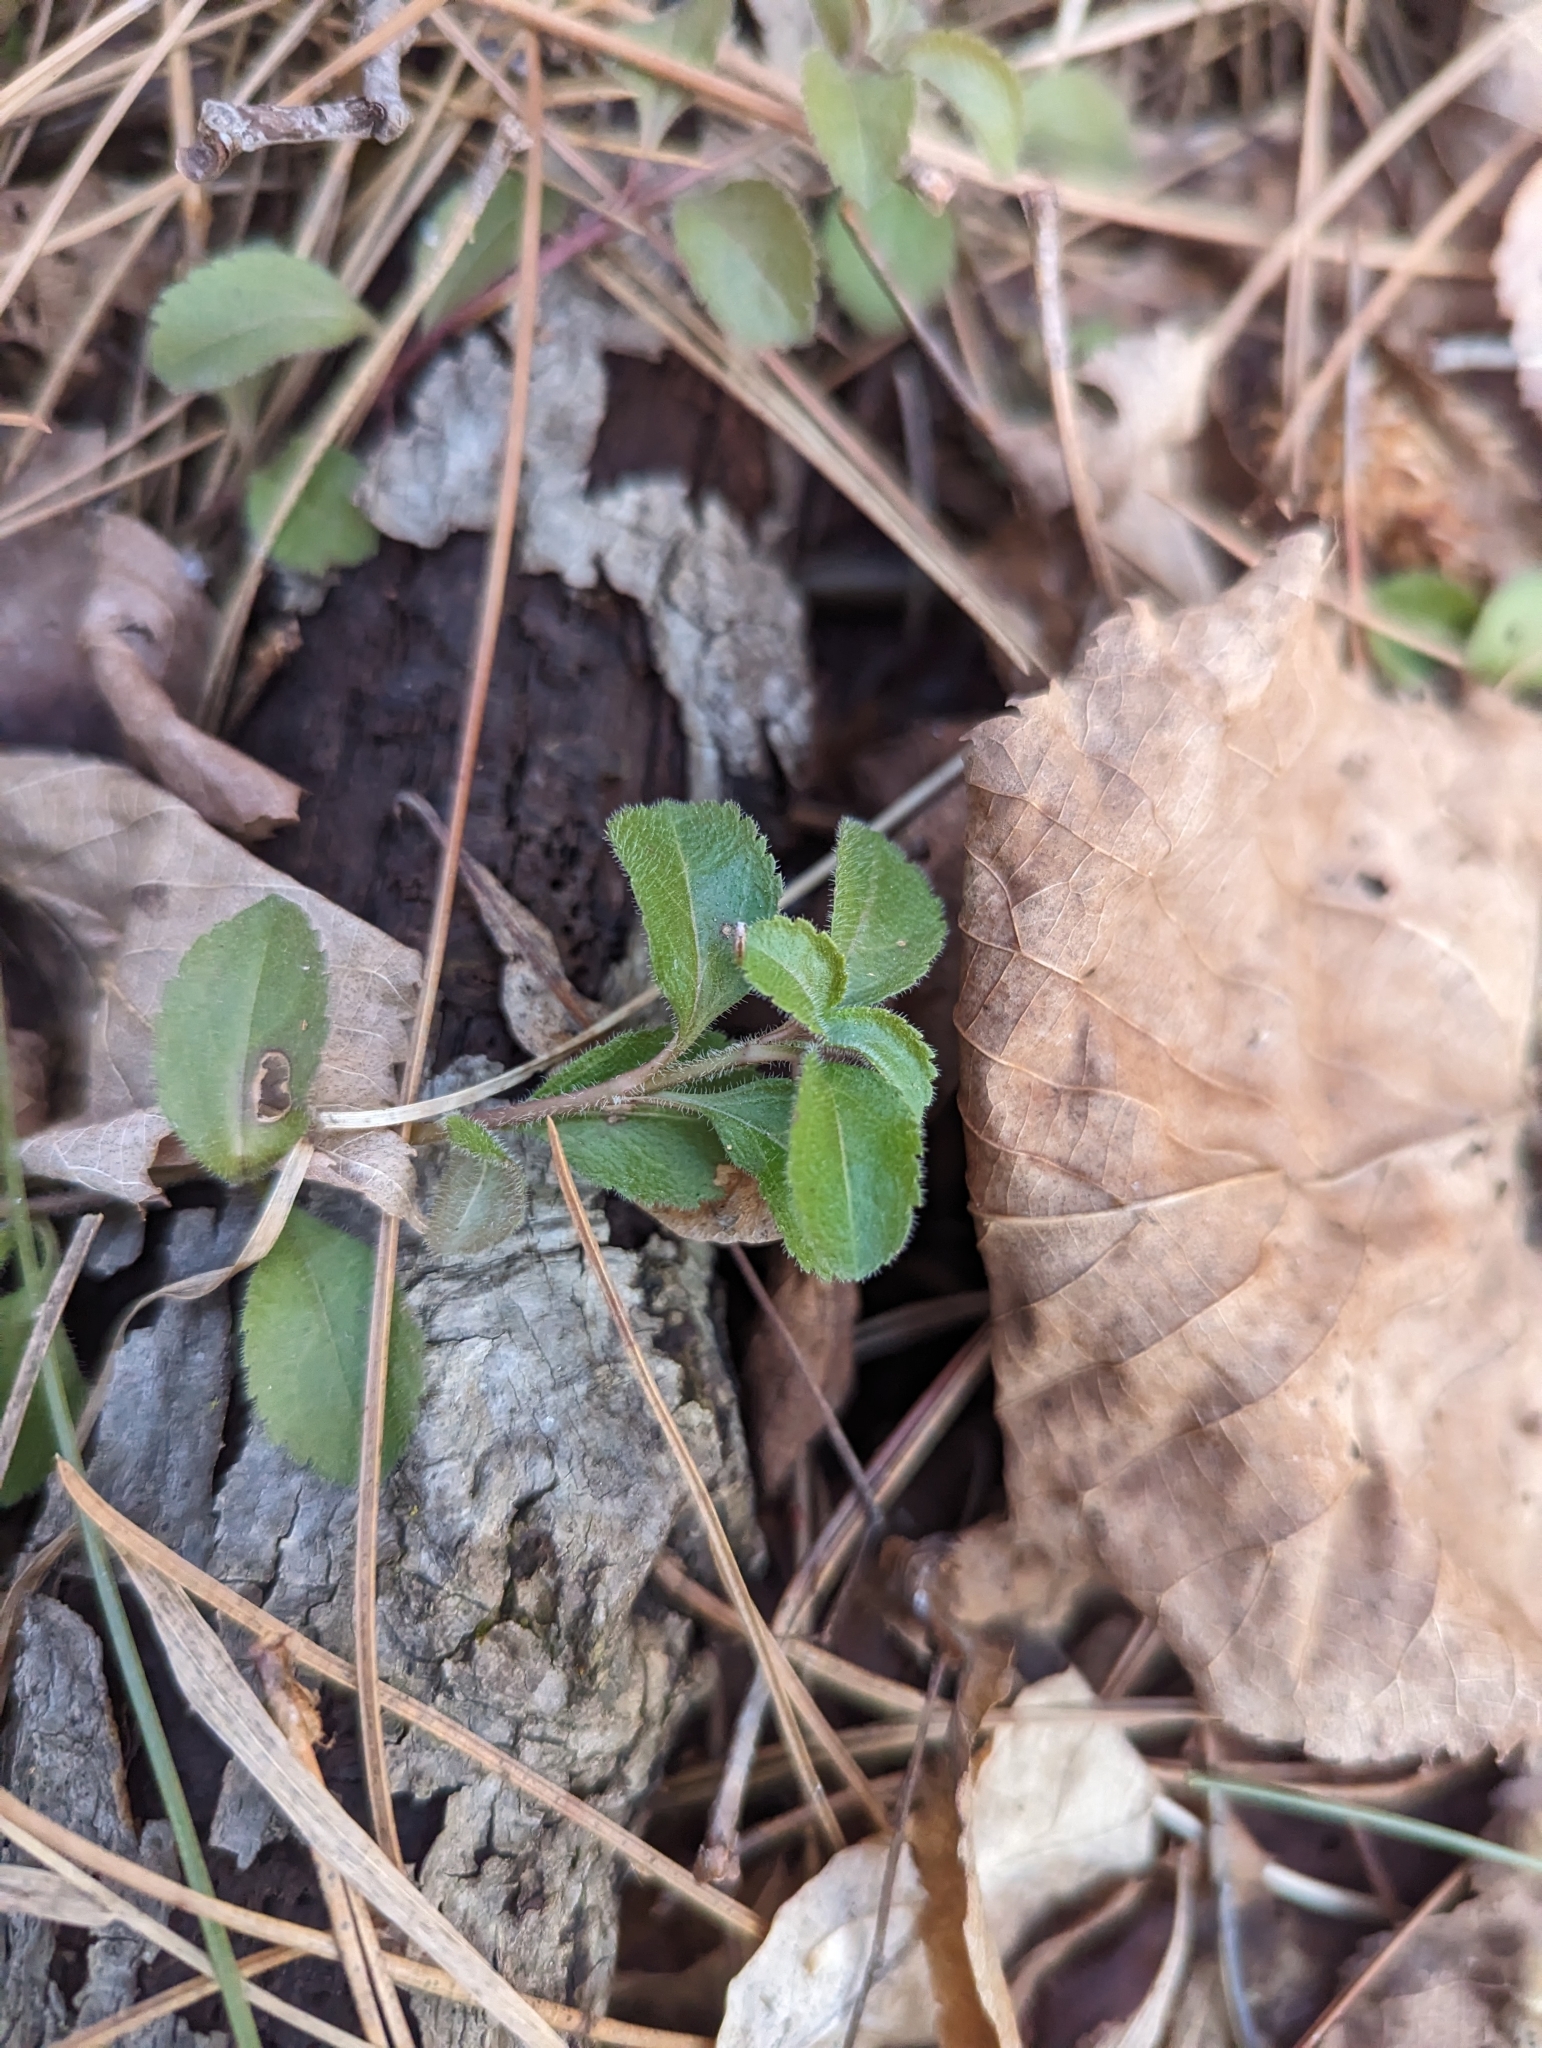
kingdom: Plantae
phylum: Tracheophyta
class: Magnoliopsida
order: Lamiales
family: Plantaginaceae
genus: Veronica
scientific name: Veronica officinalis
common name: Common speedwell
